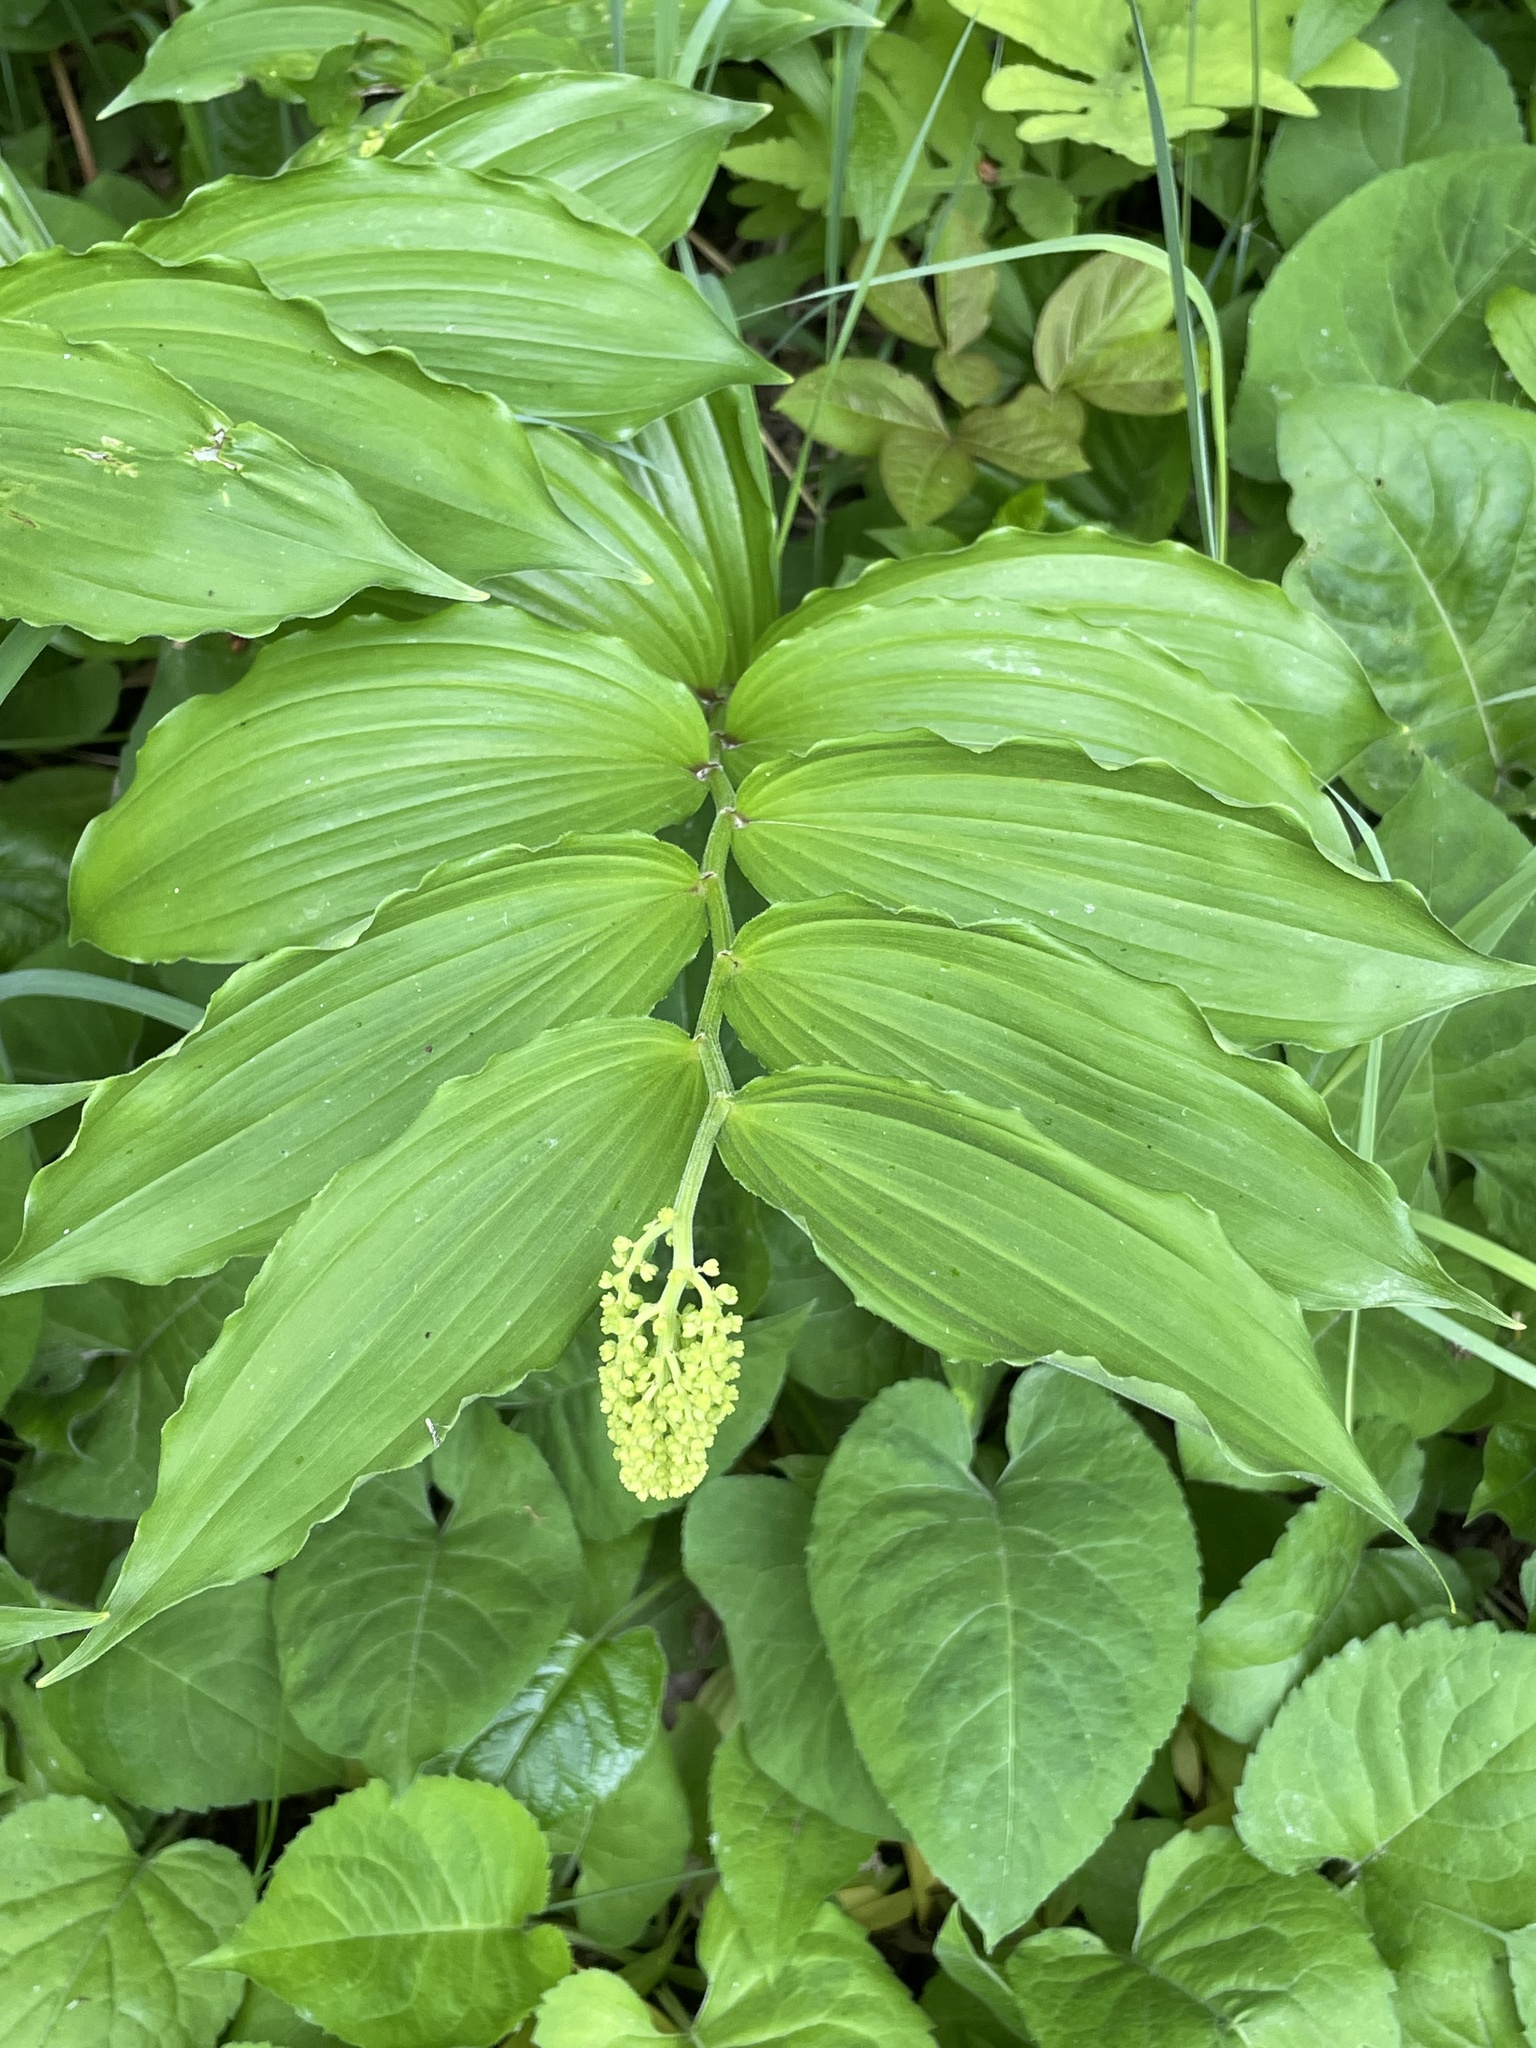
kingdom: Plantae
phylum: Tracheophyta
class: Liliopsida
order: Asparagales
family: Asparagaceae
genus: Maianthemum
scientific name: Maianthemum racemosum
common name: False spikenard
